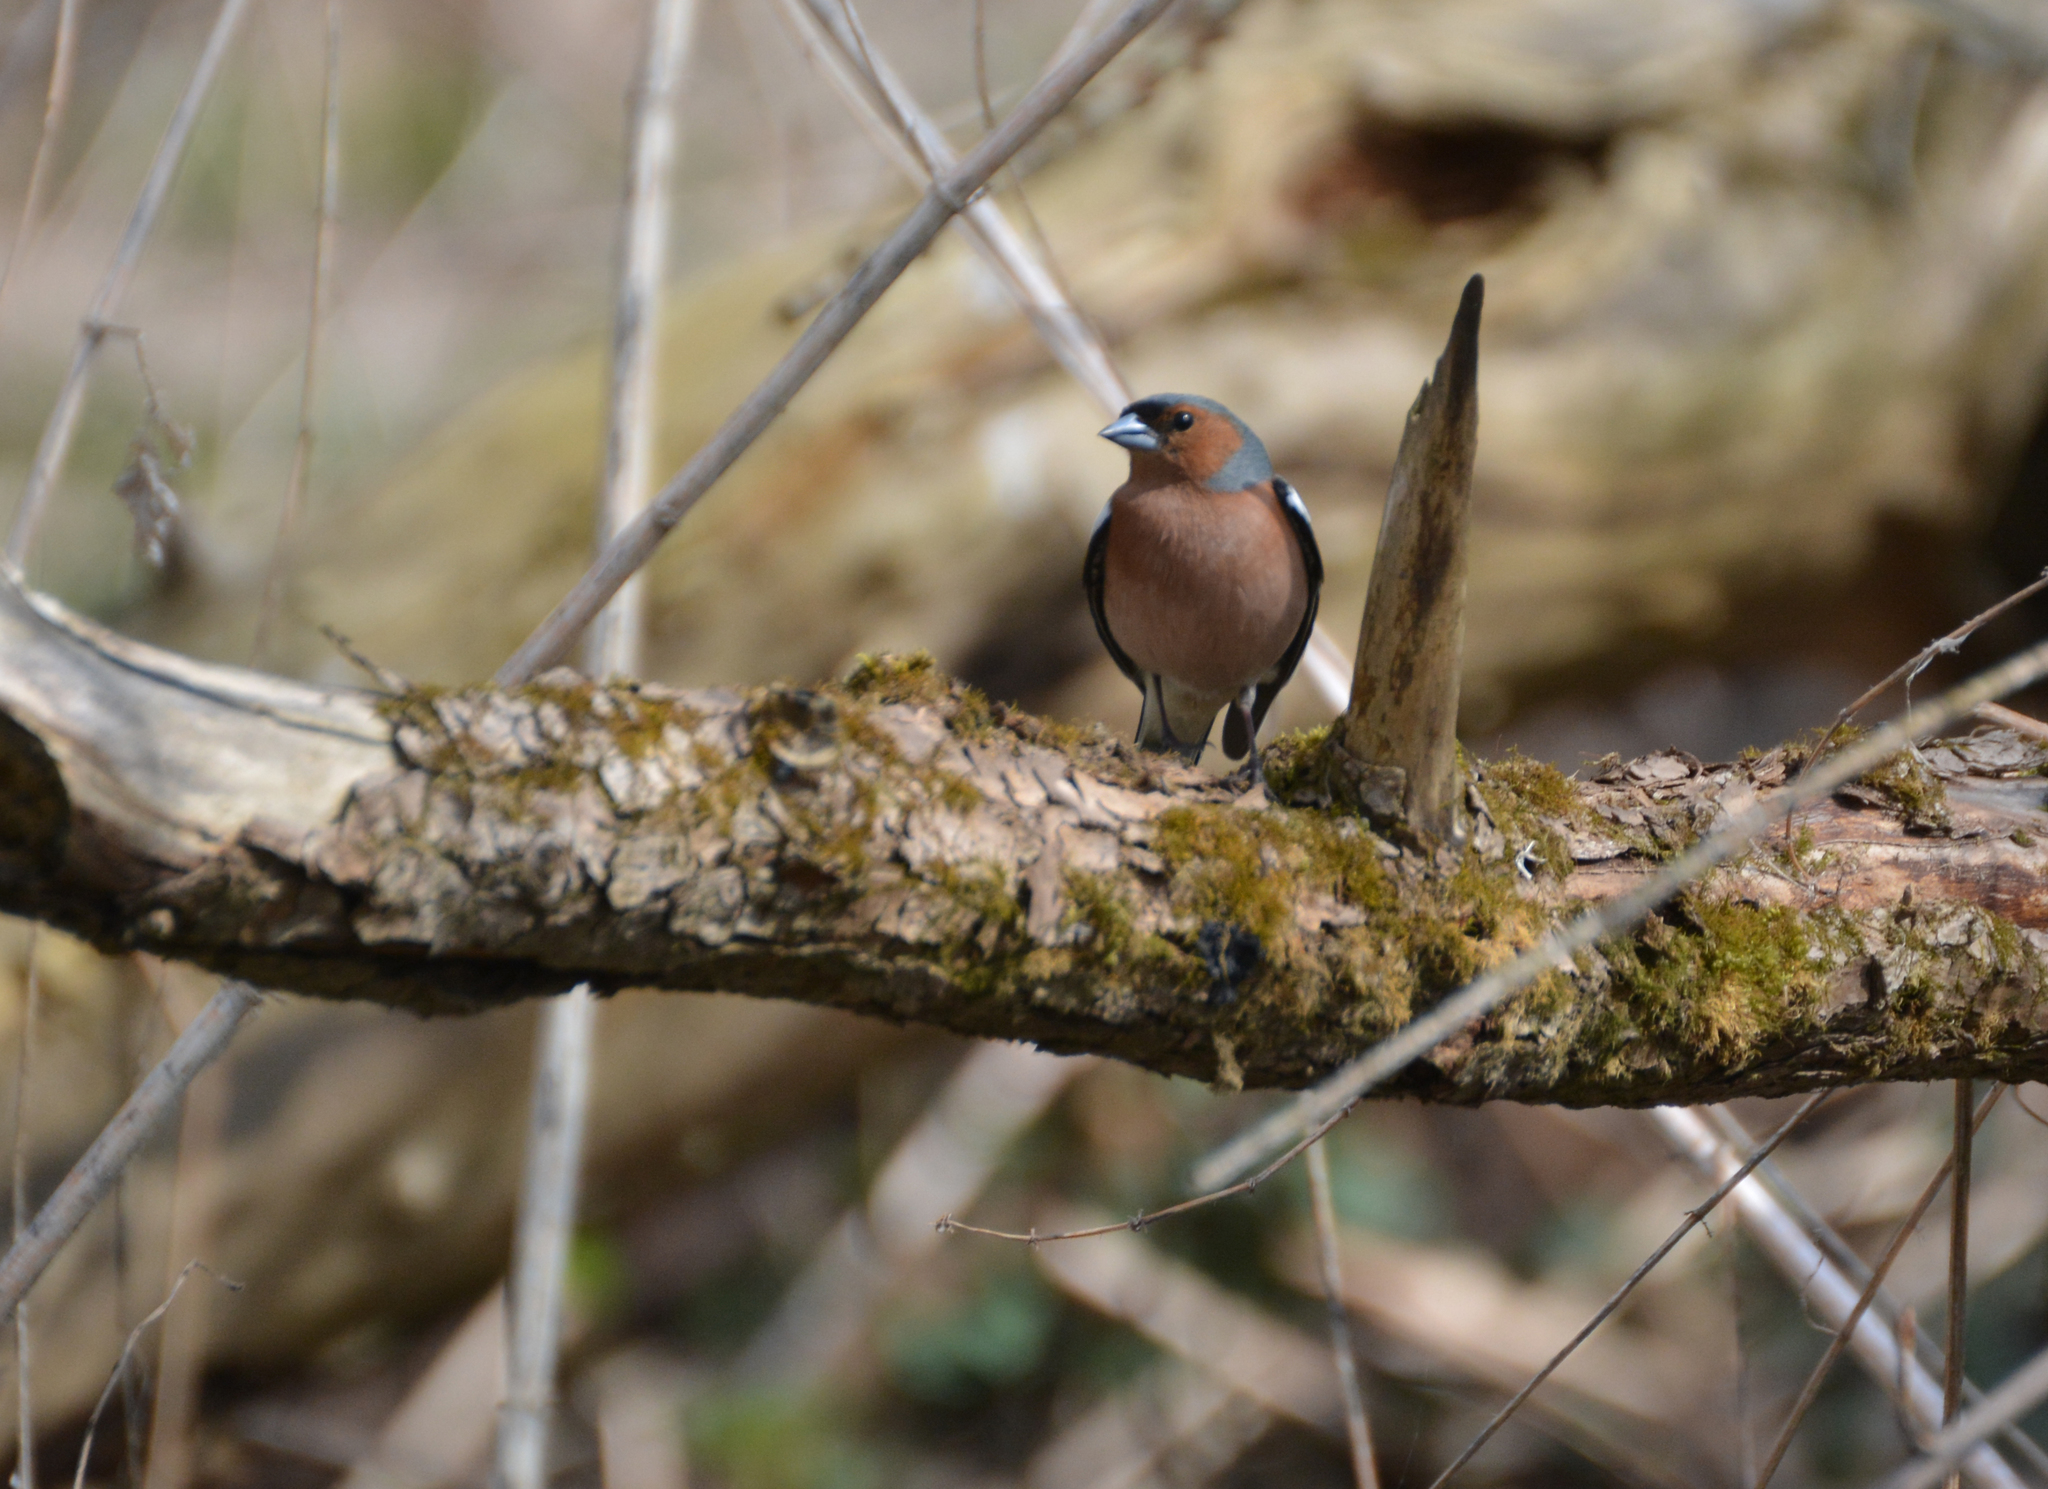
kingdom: Animalia
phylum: Chordata
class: Aves
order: Passeriformes
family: Fringillidae
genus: Fringilla
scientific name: Fringilla coelebs
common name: Common chaffinch
